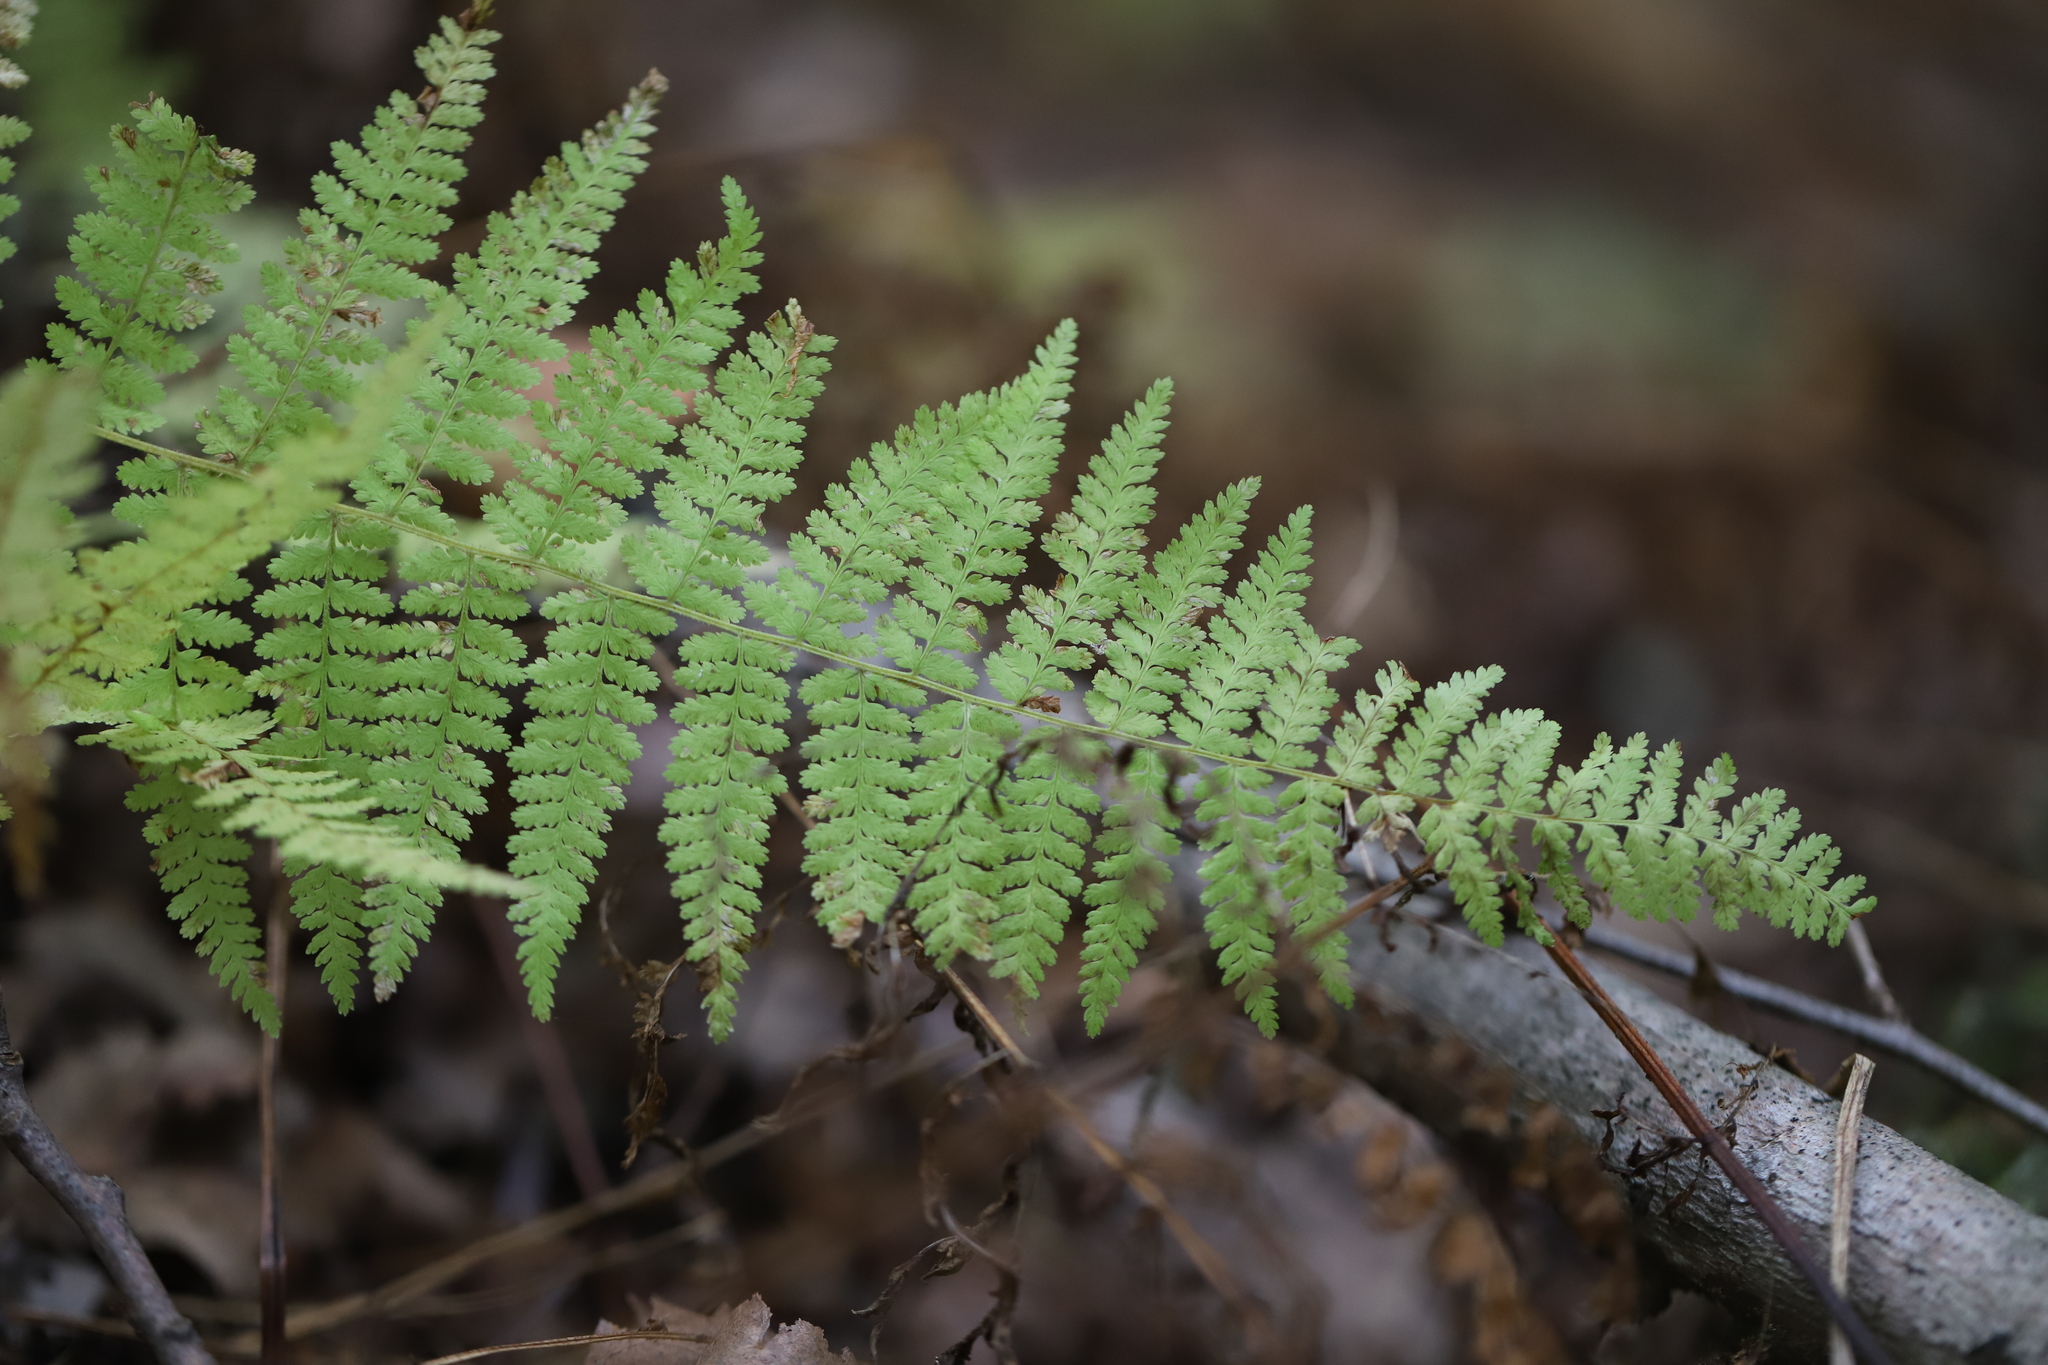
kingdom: Plantae
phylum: Tracheophyta
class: Polypodiopsida
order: Polypodiales
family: Dennstaedtiaceae
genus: Sitobolium
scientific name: Sitobolium punctilobum
